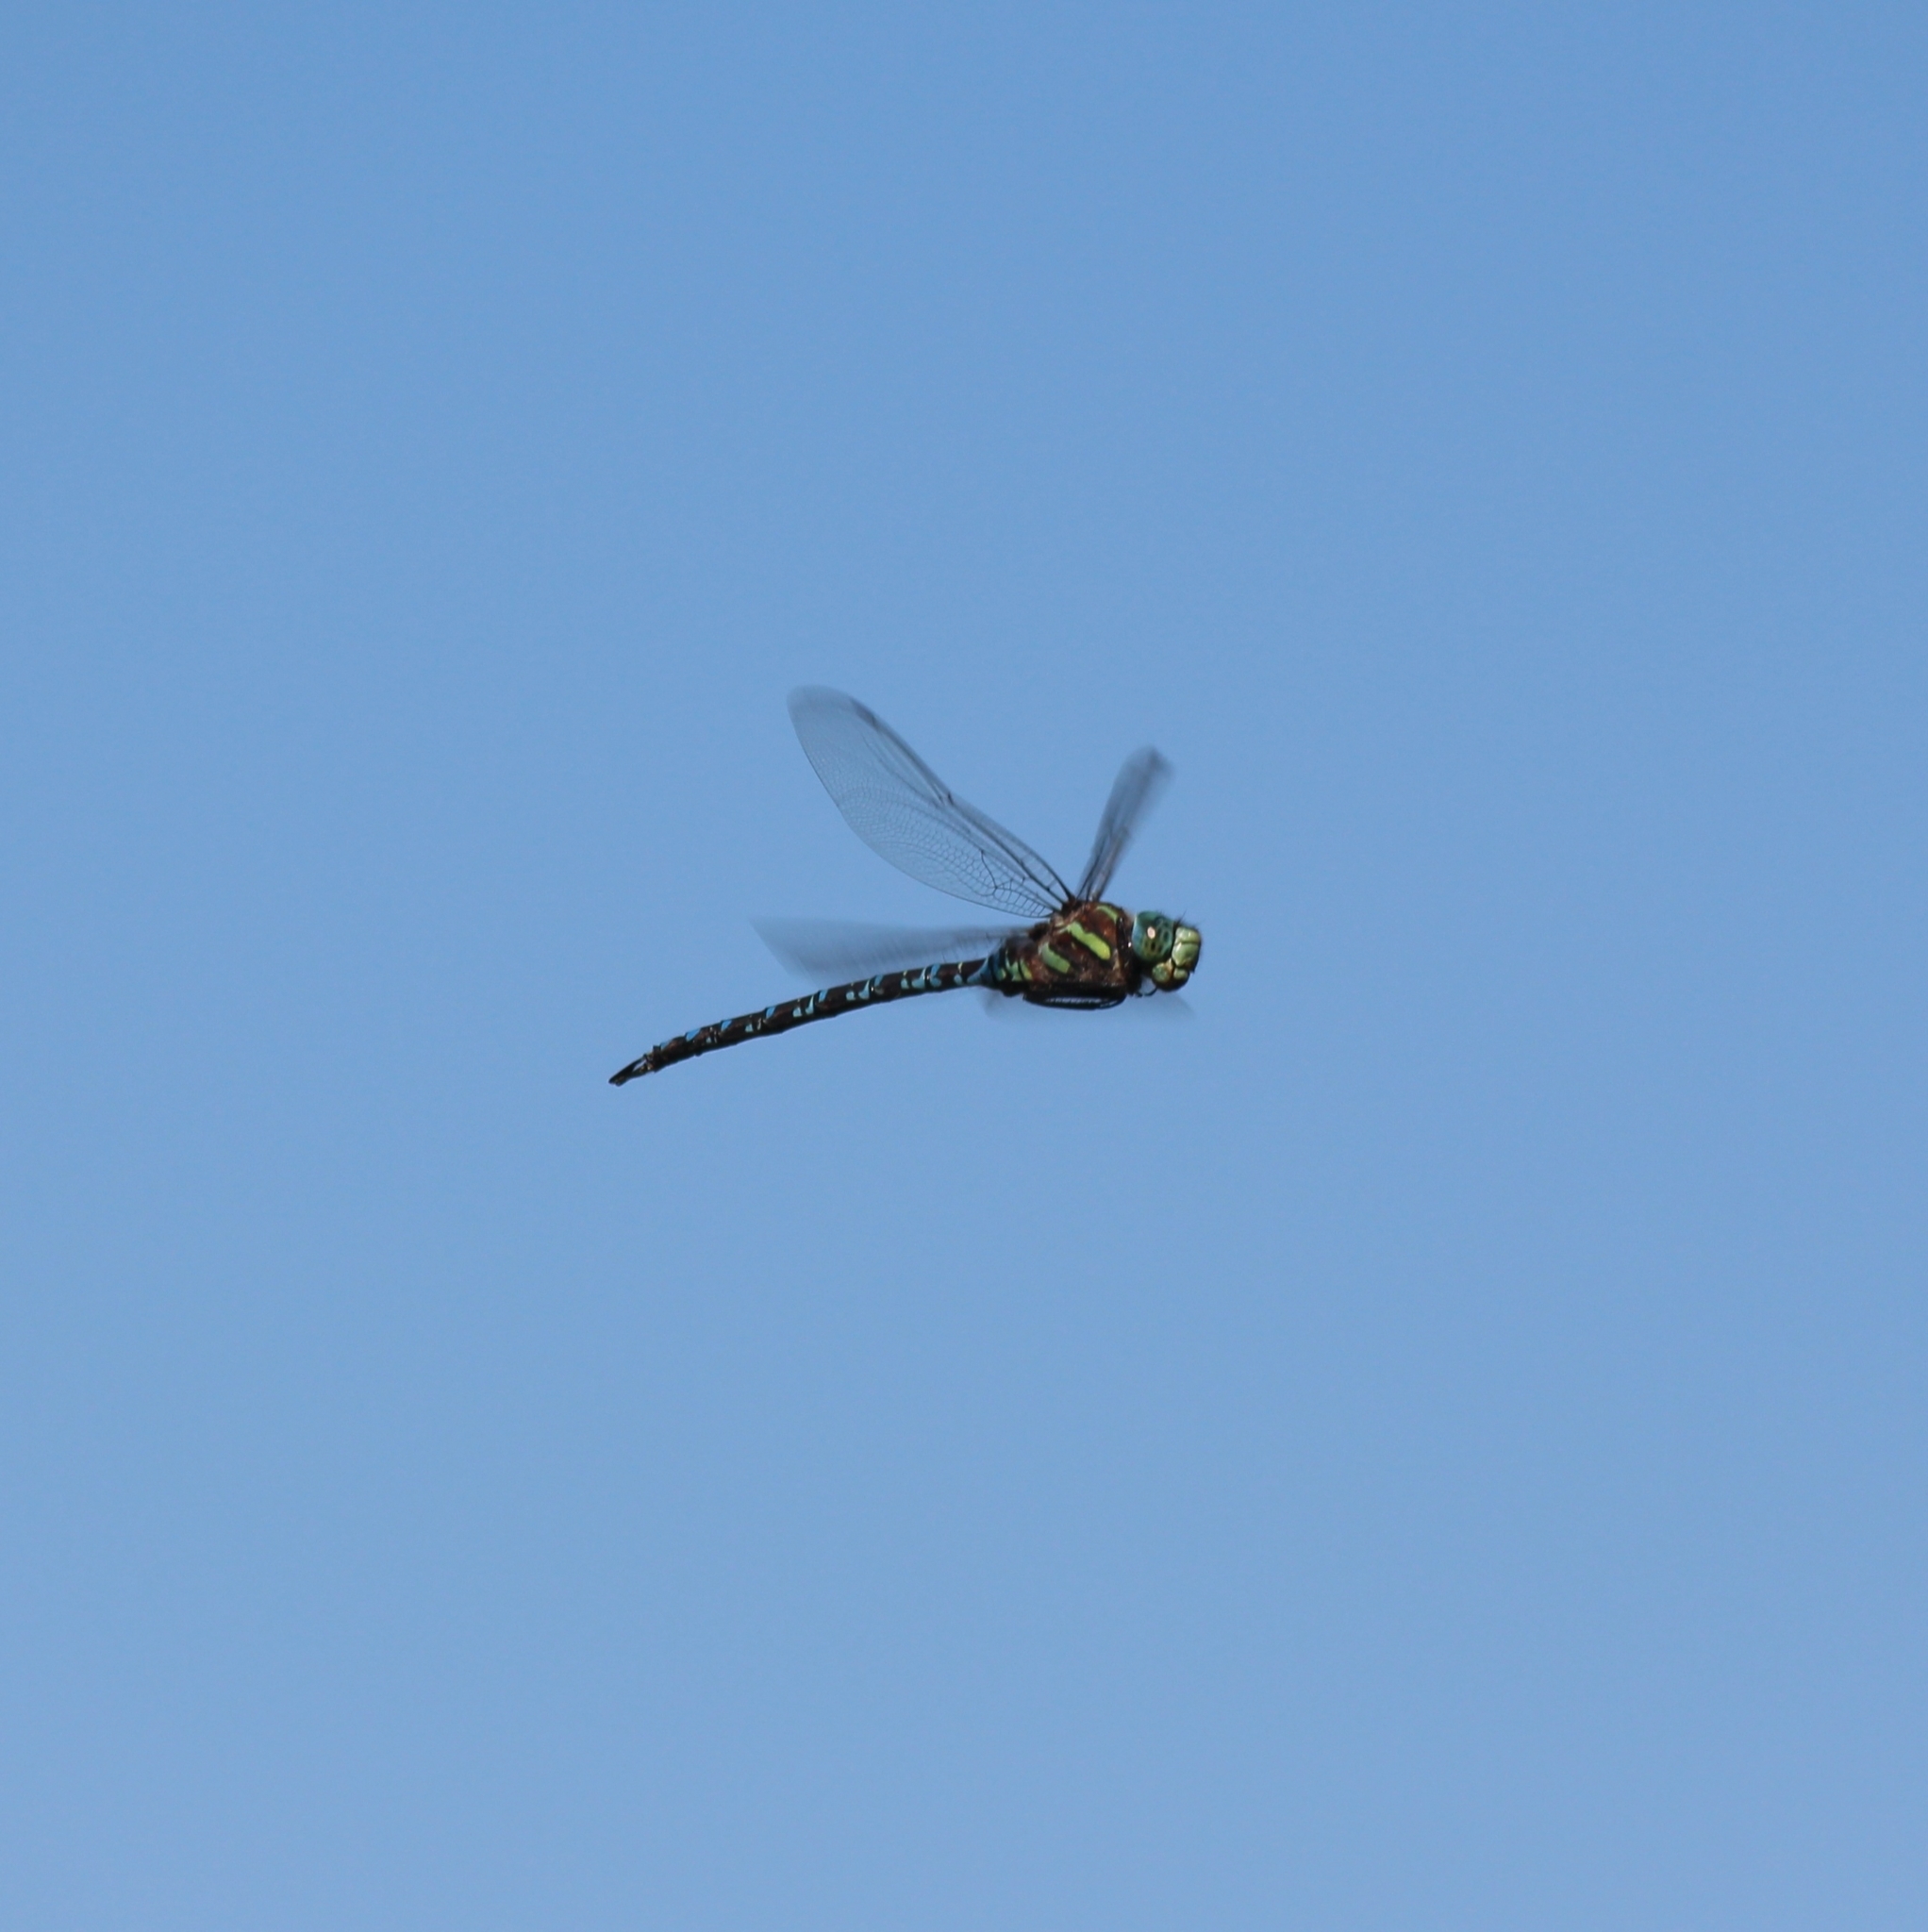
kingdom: Animalia
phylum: Arthropoda
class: Insecta
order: Odonata
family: Aeshnidae
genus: Aeshna
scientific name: Aeshna crenata
